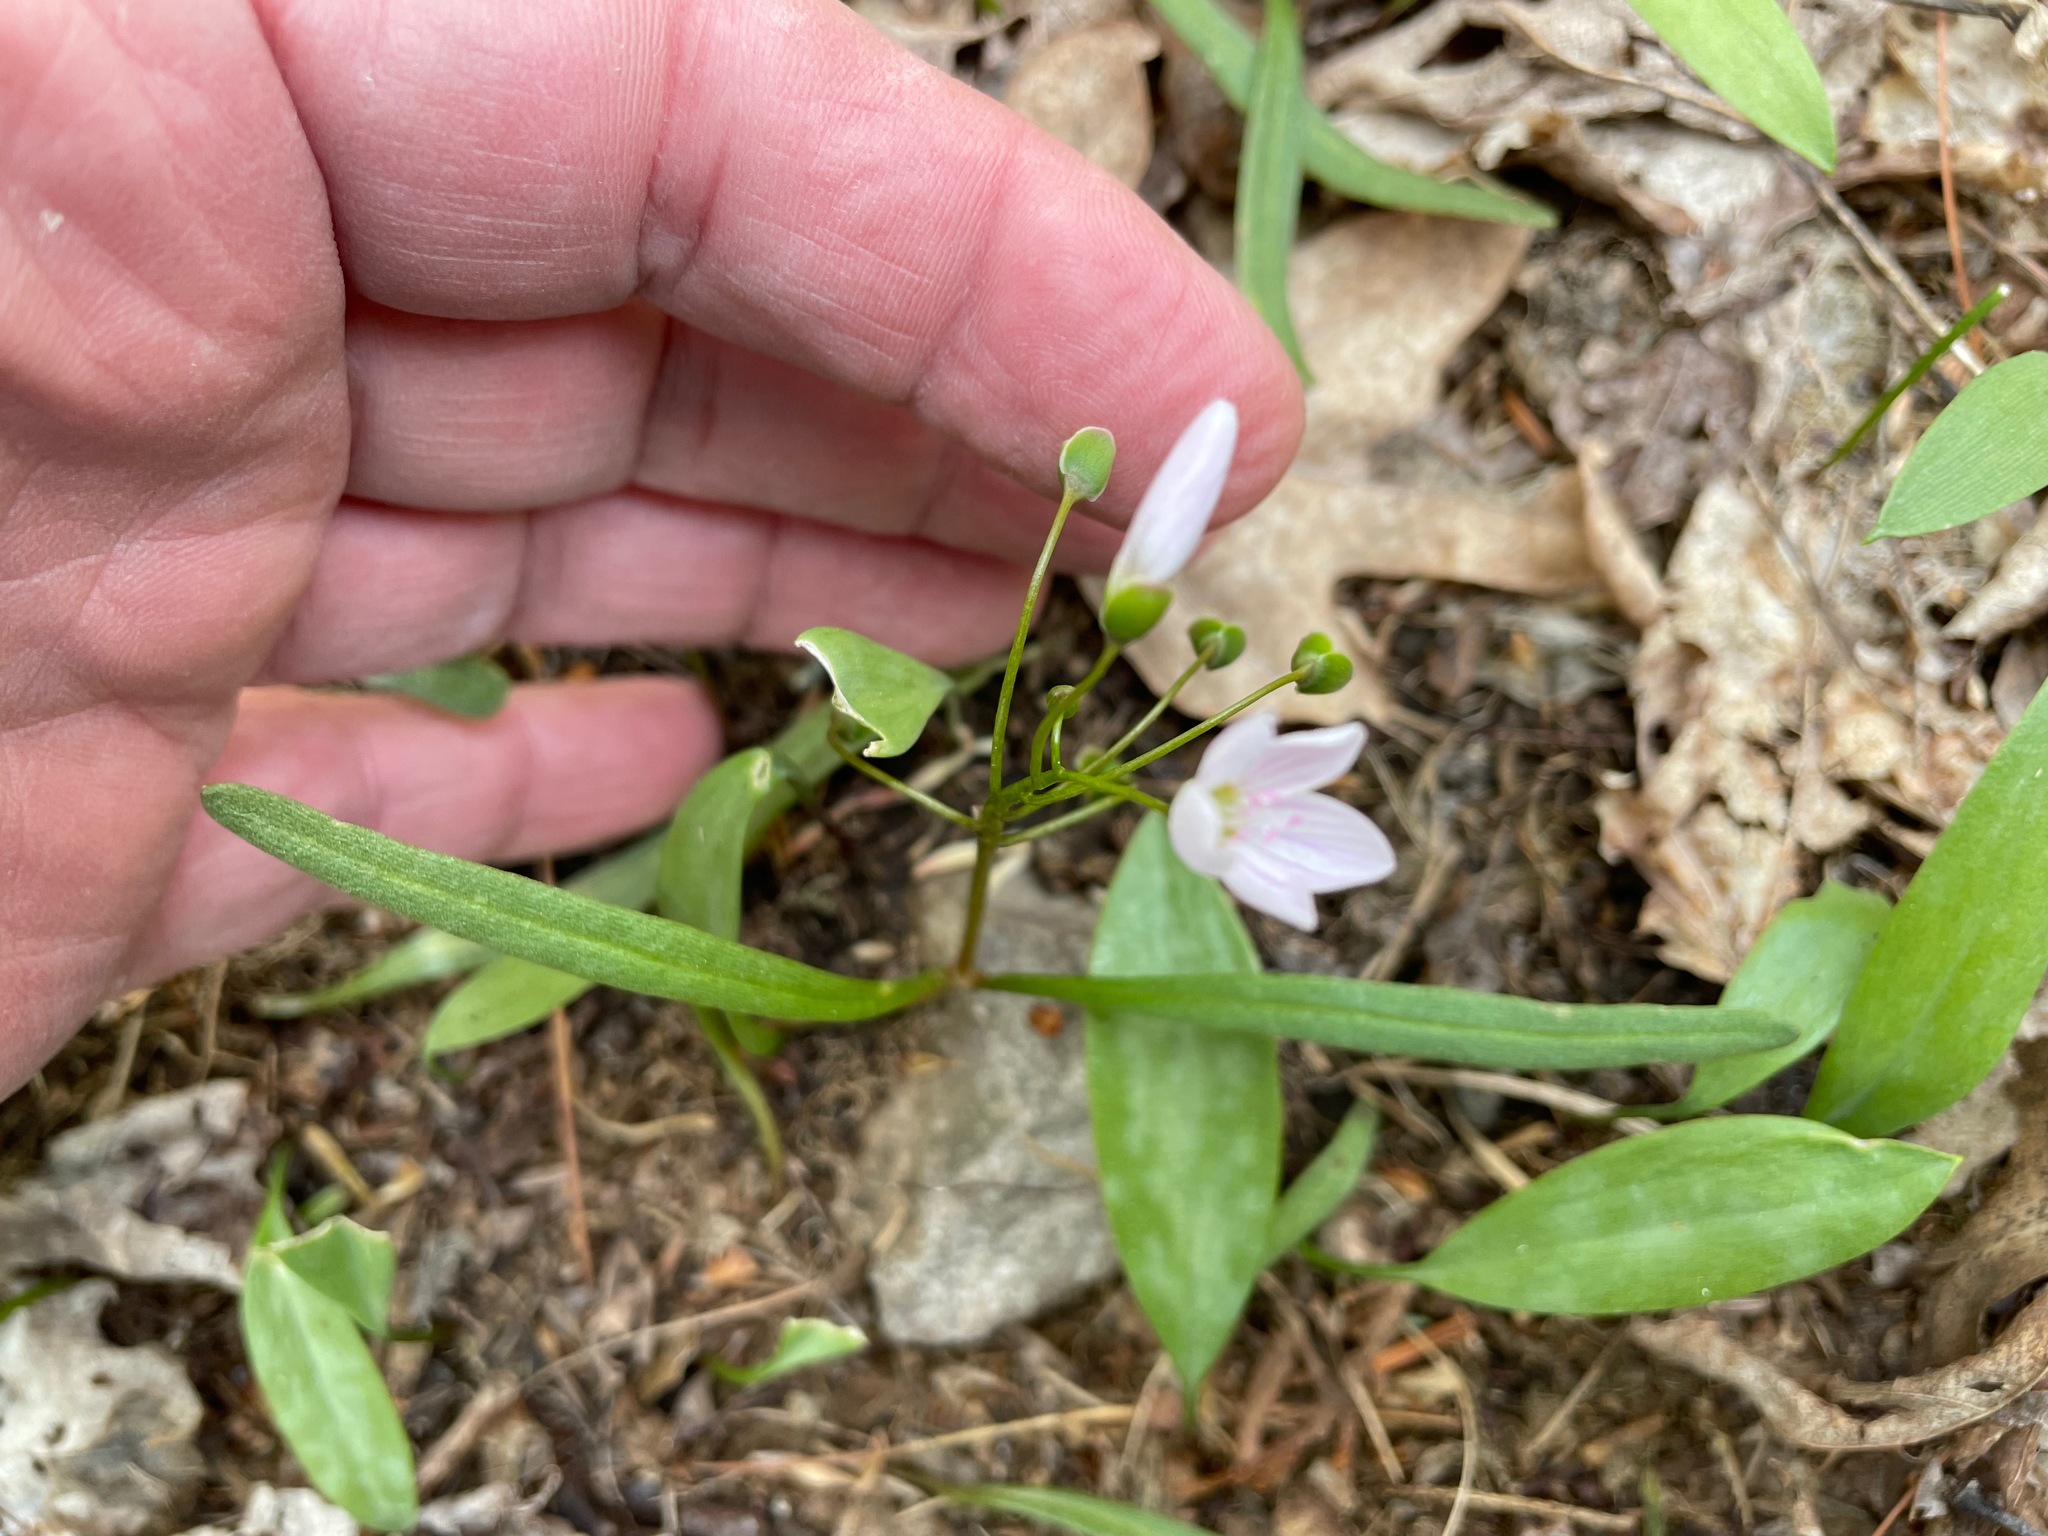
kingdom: Plantae
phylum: Tracheophyta
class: Magnoliopsida
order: Caryophyllales
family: Montiaceae
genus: Claytonia
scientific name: Claytonia virginica
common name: Virginia springbeauty
